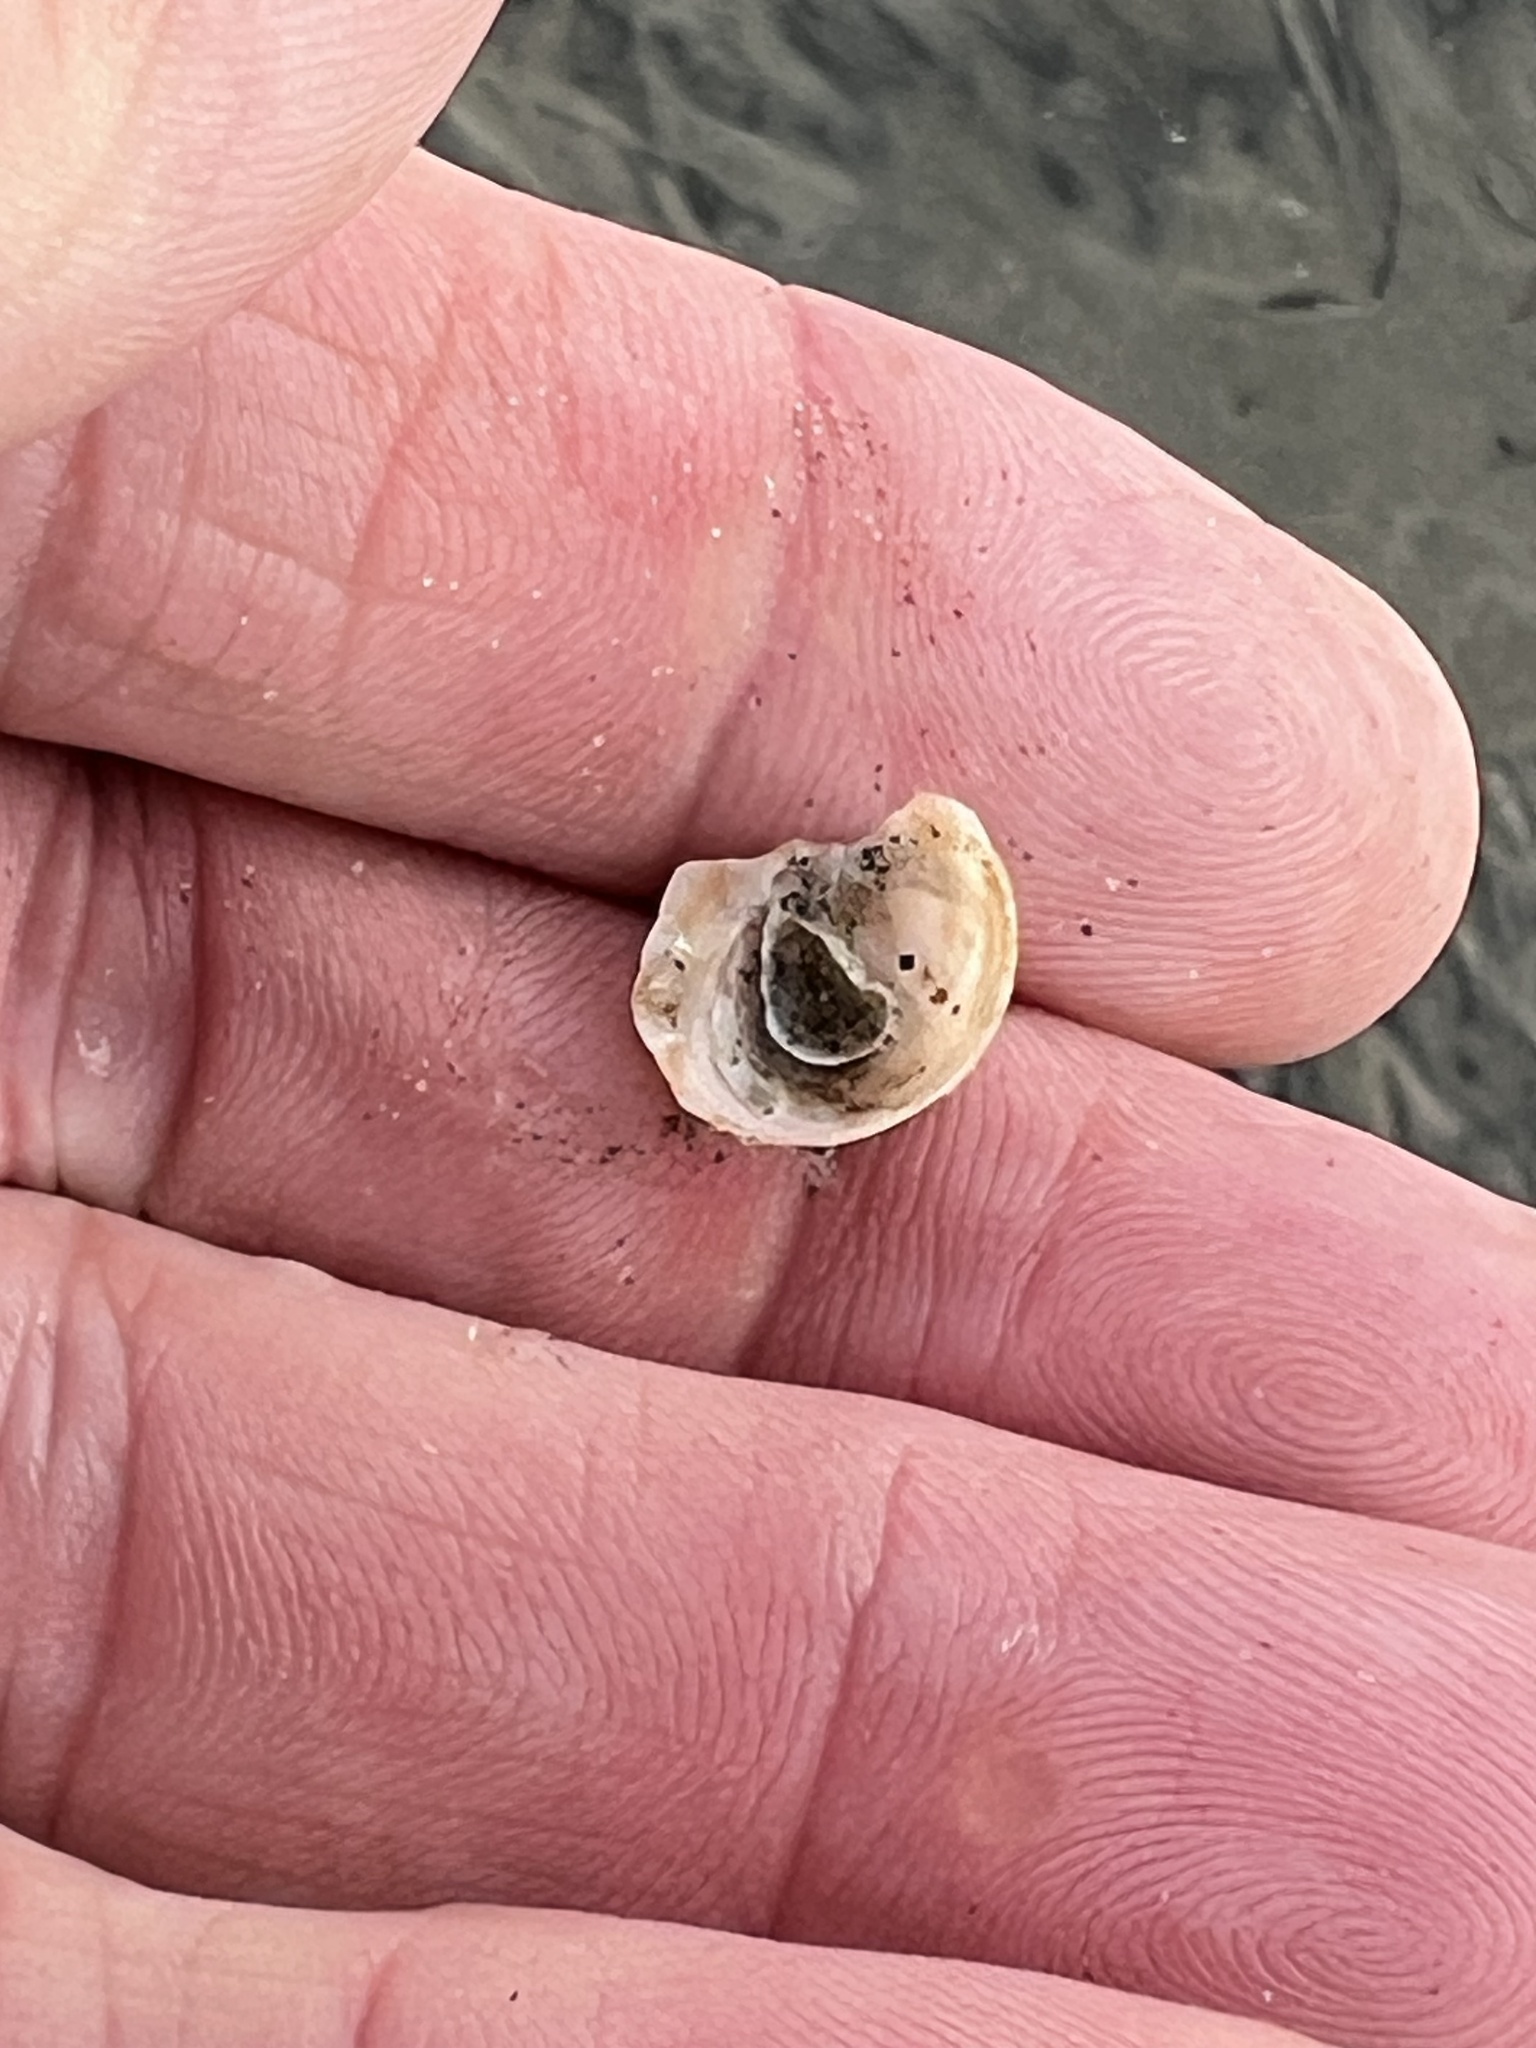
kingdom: Animalia
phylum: Mollusca
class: Gastropoda
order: Littorinimorpha
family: Calyptraeidae
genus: Crucibulum
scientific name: Crucibulum spinosum
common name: Spiny cup-and-saucer
